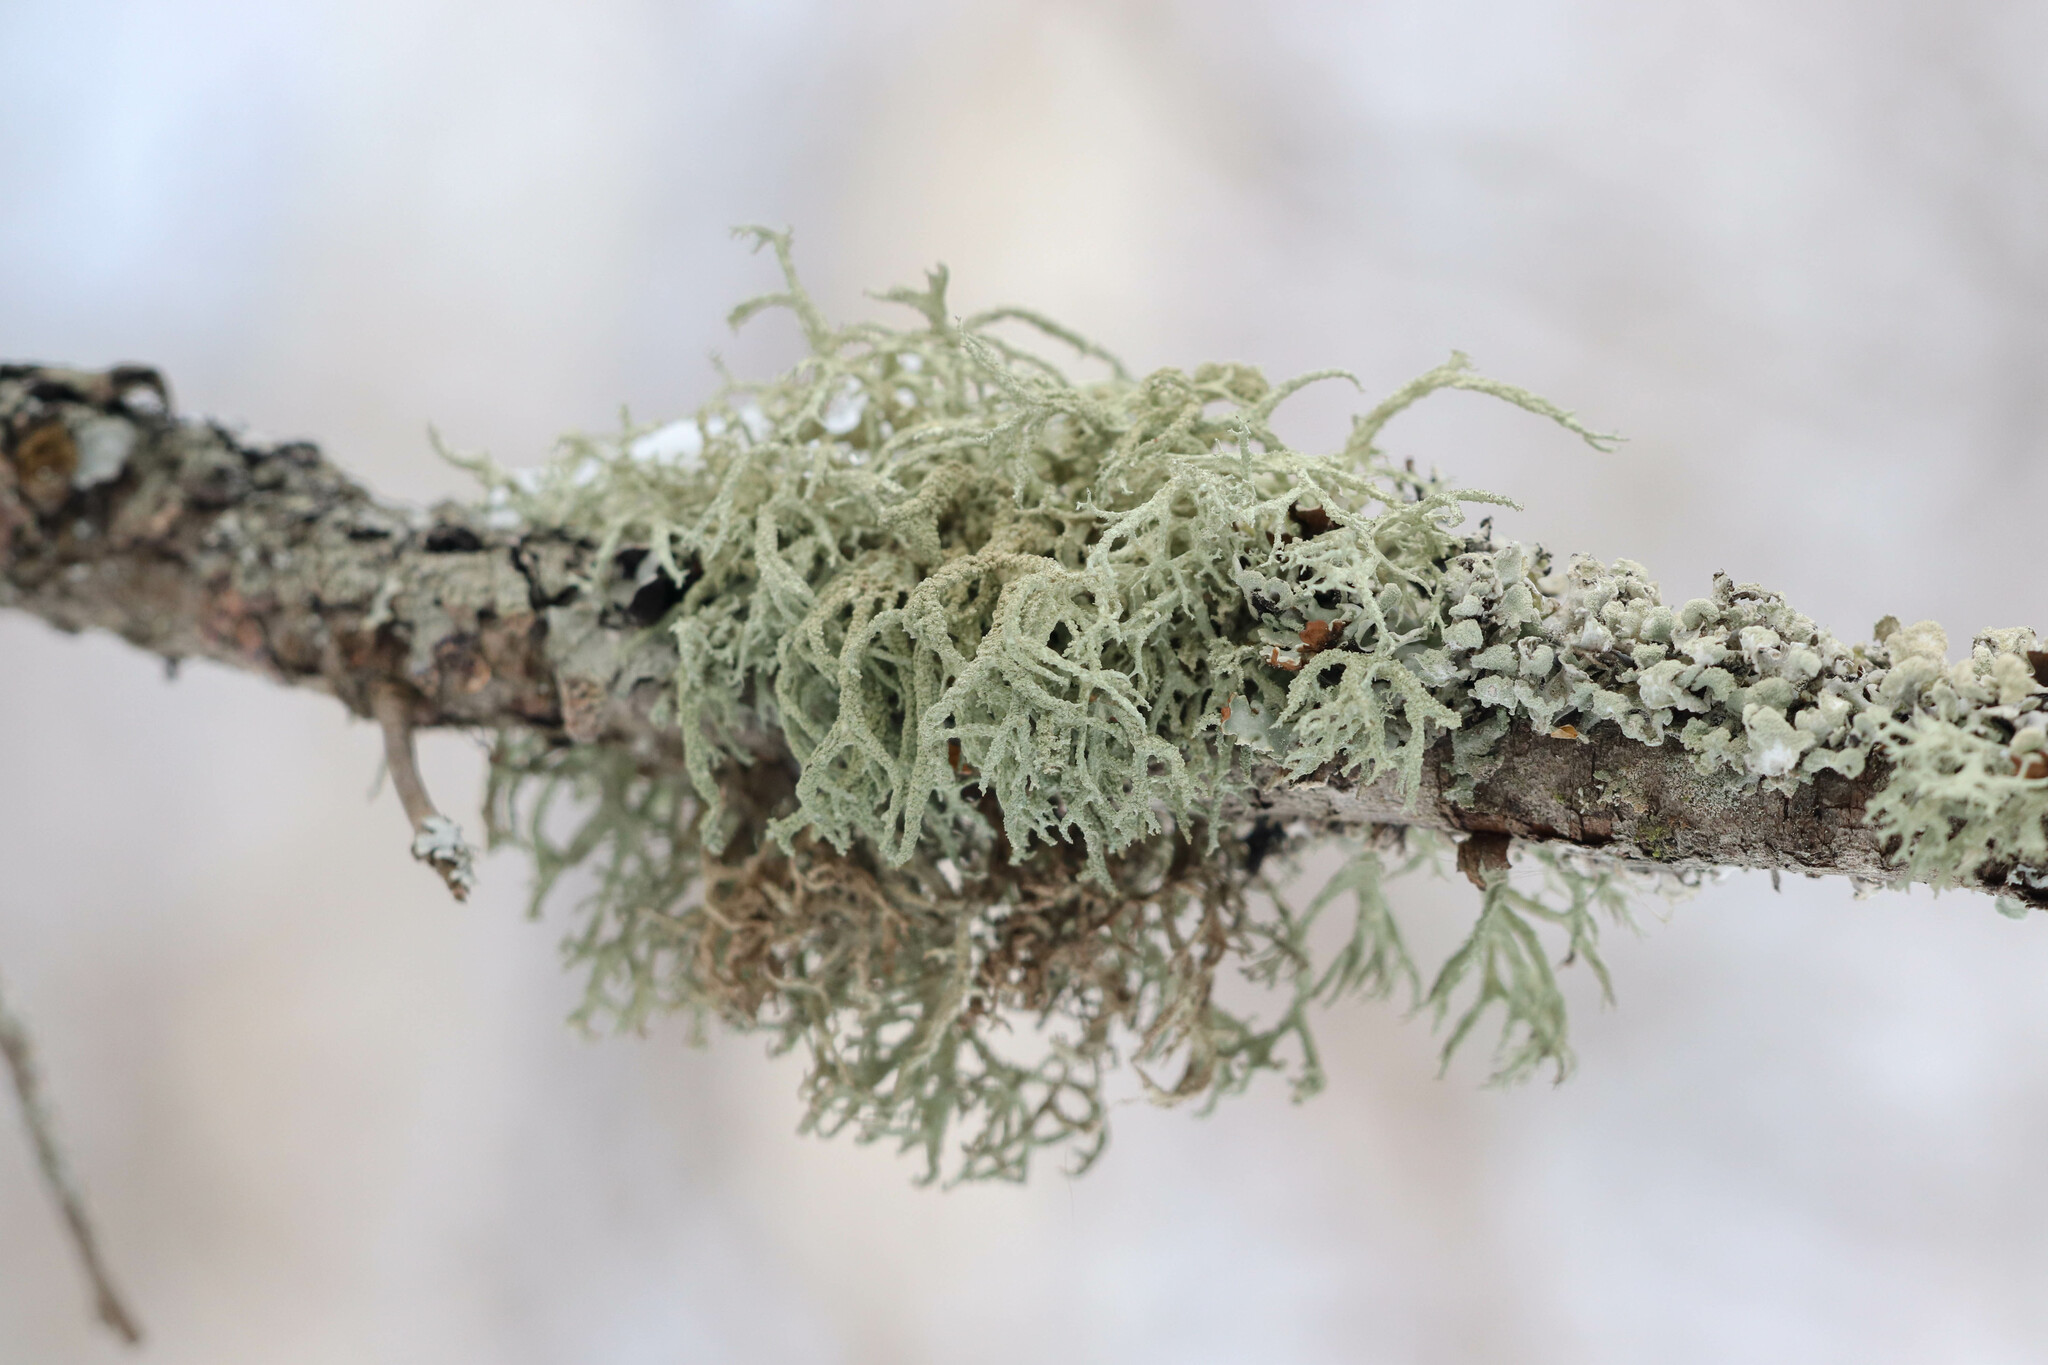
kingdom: Fungi
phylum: Ascomycota
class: Lecanoromycetes
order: Lecanorales
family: Parmeliaceae
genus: Evernia
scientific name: Evernia mesomorpha
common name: Boreal oak moss lichen
